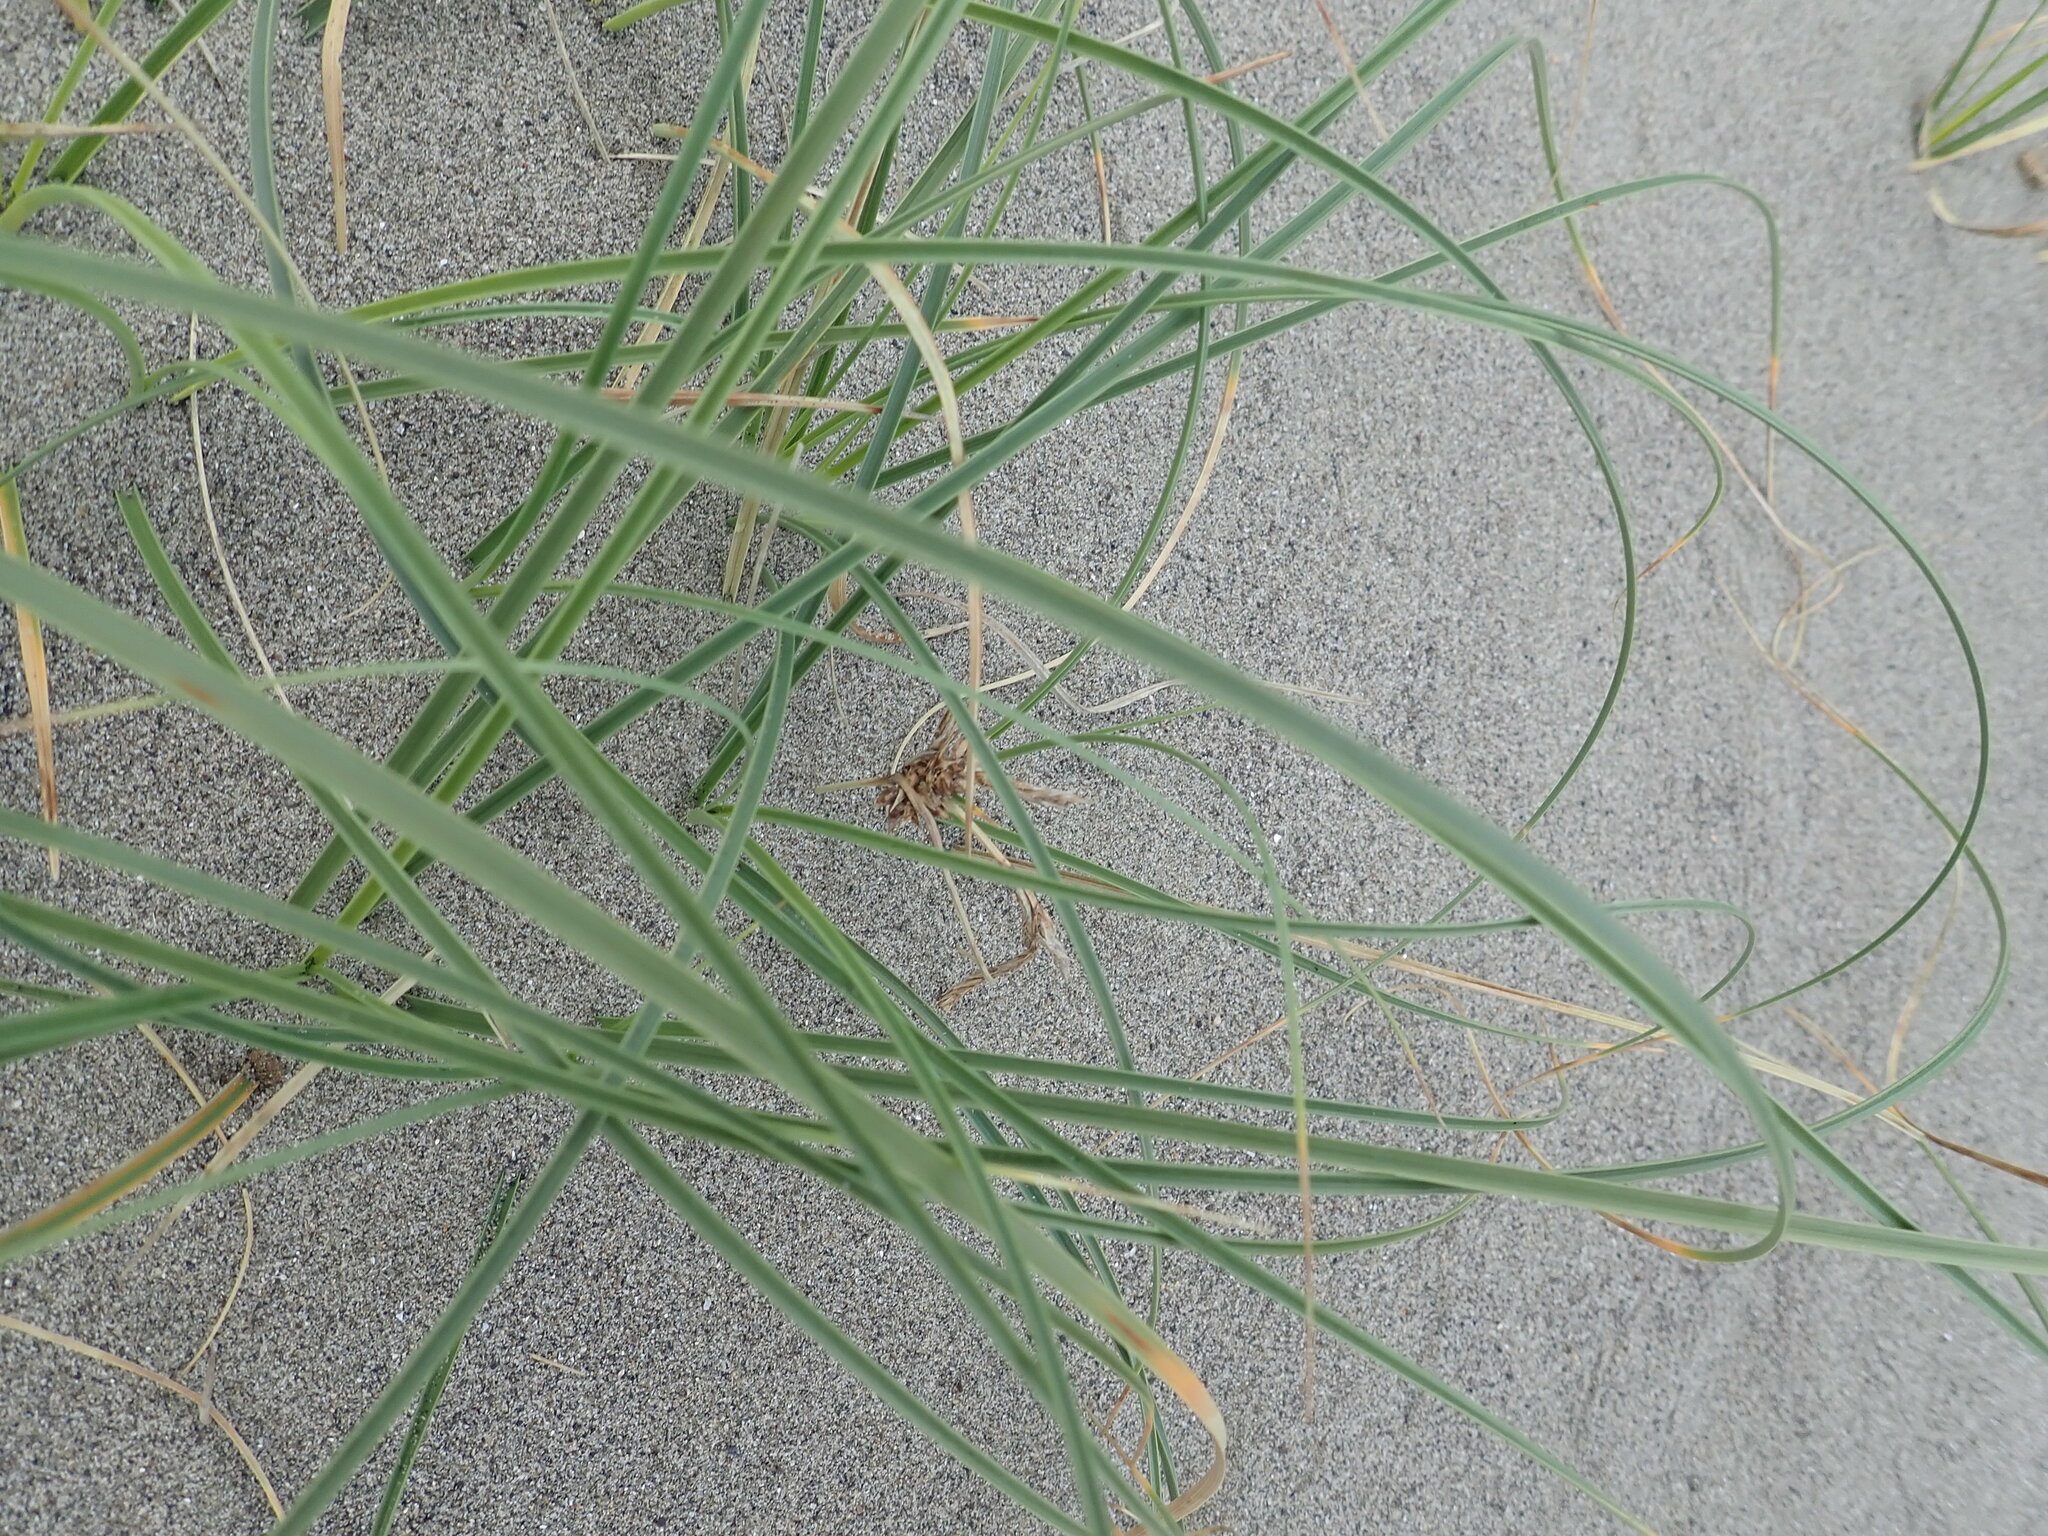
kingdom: Plantae
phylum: Tracheophyta
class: Liliopsida
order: Poales
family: Cyperaceae
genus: Carex
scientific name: Carex pumila
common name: Dwarf sedge
